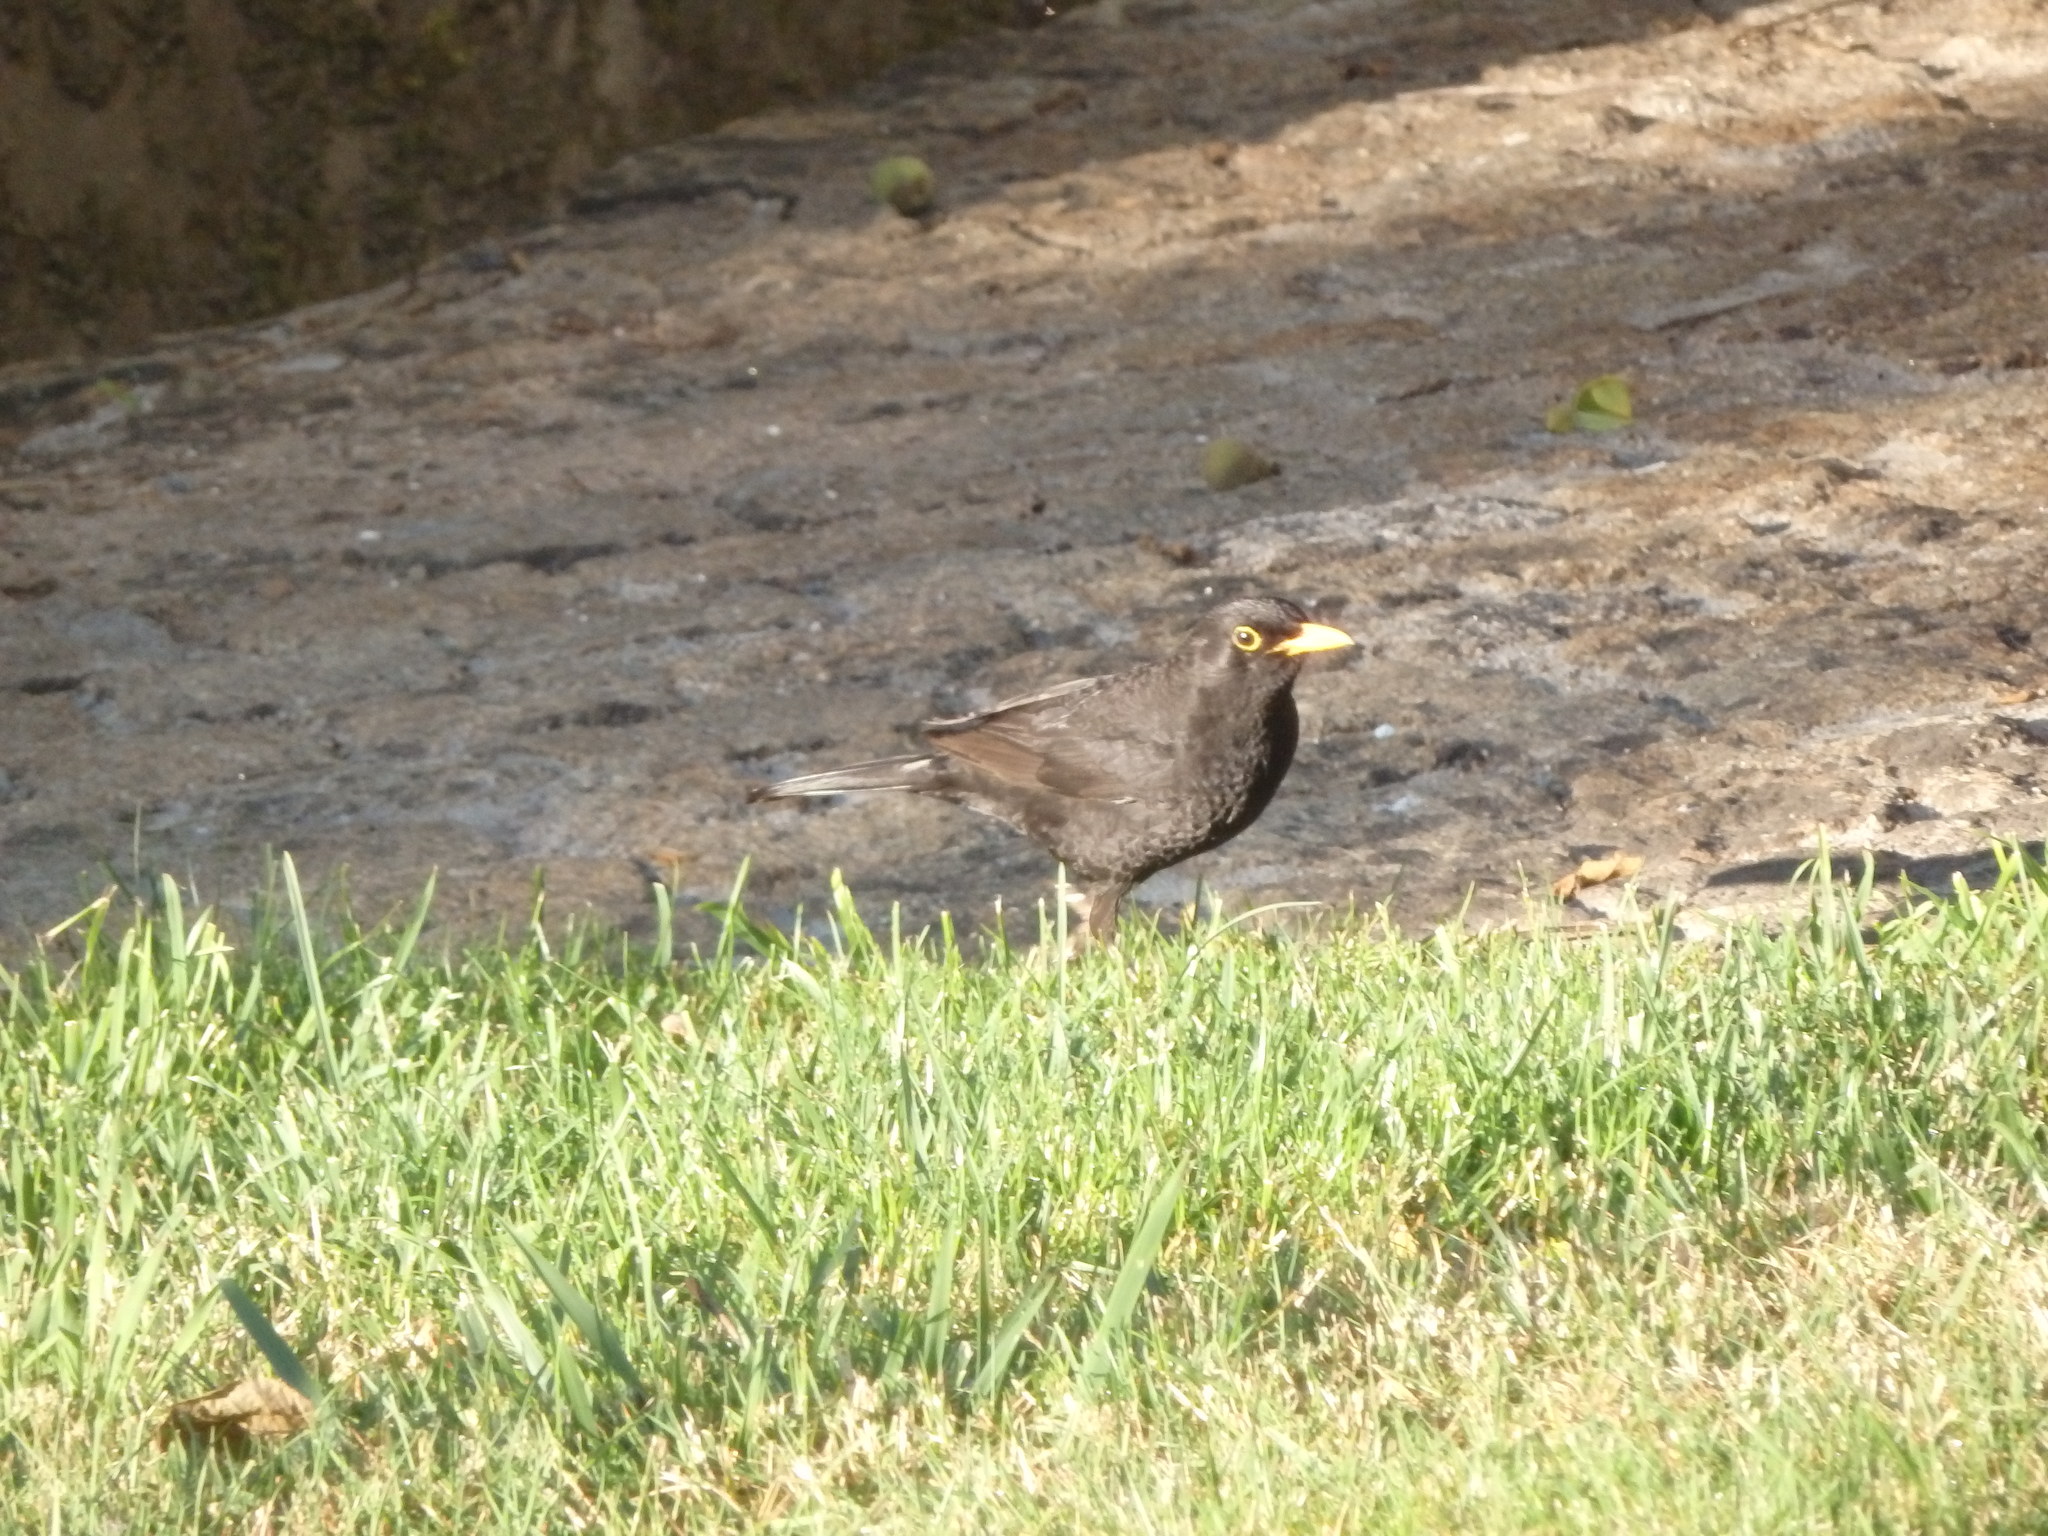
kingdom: Animalia
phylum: Chordata
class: Aves
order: Passeriformes
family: Turdidae
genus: Turdus
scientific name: Turdus merula
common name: Common blackbird
